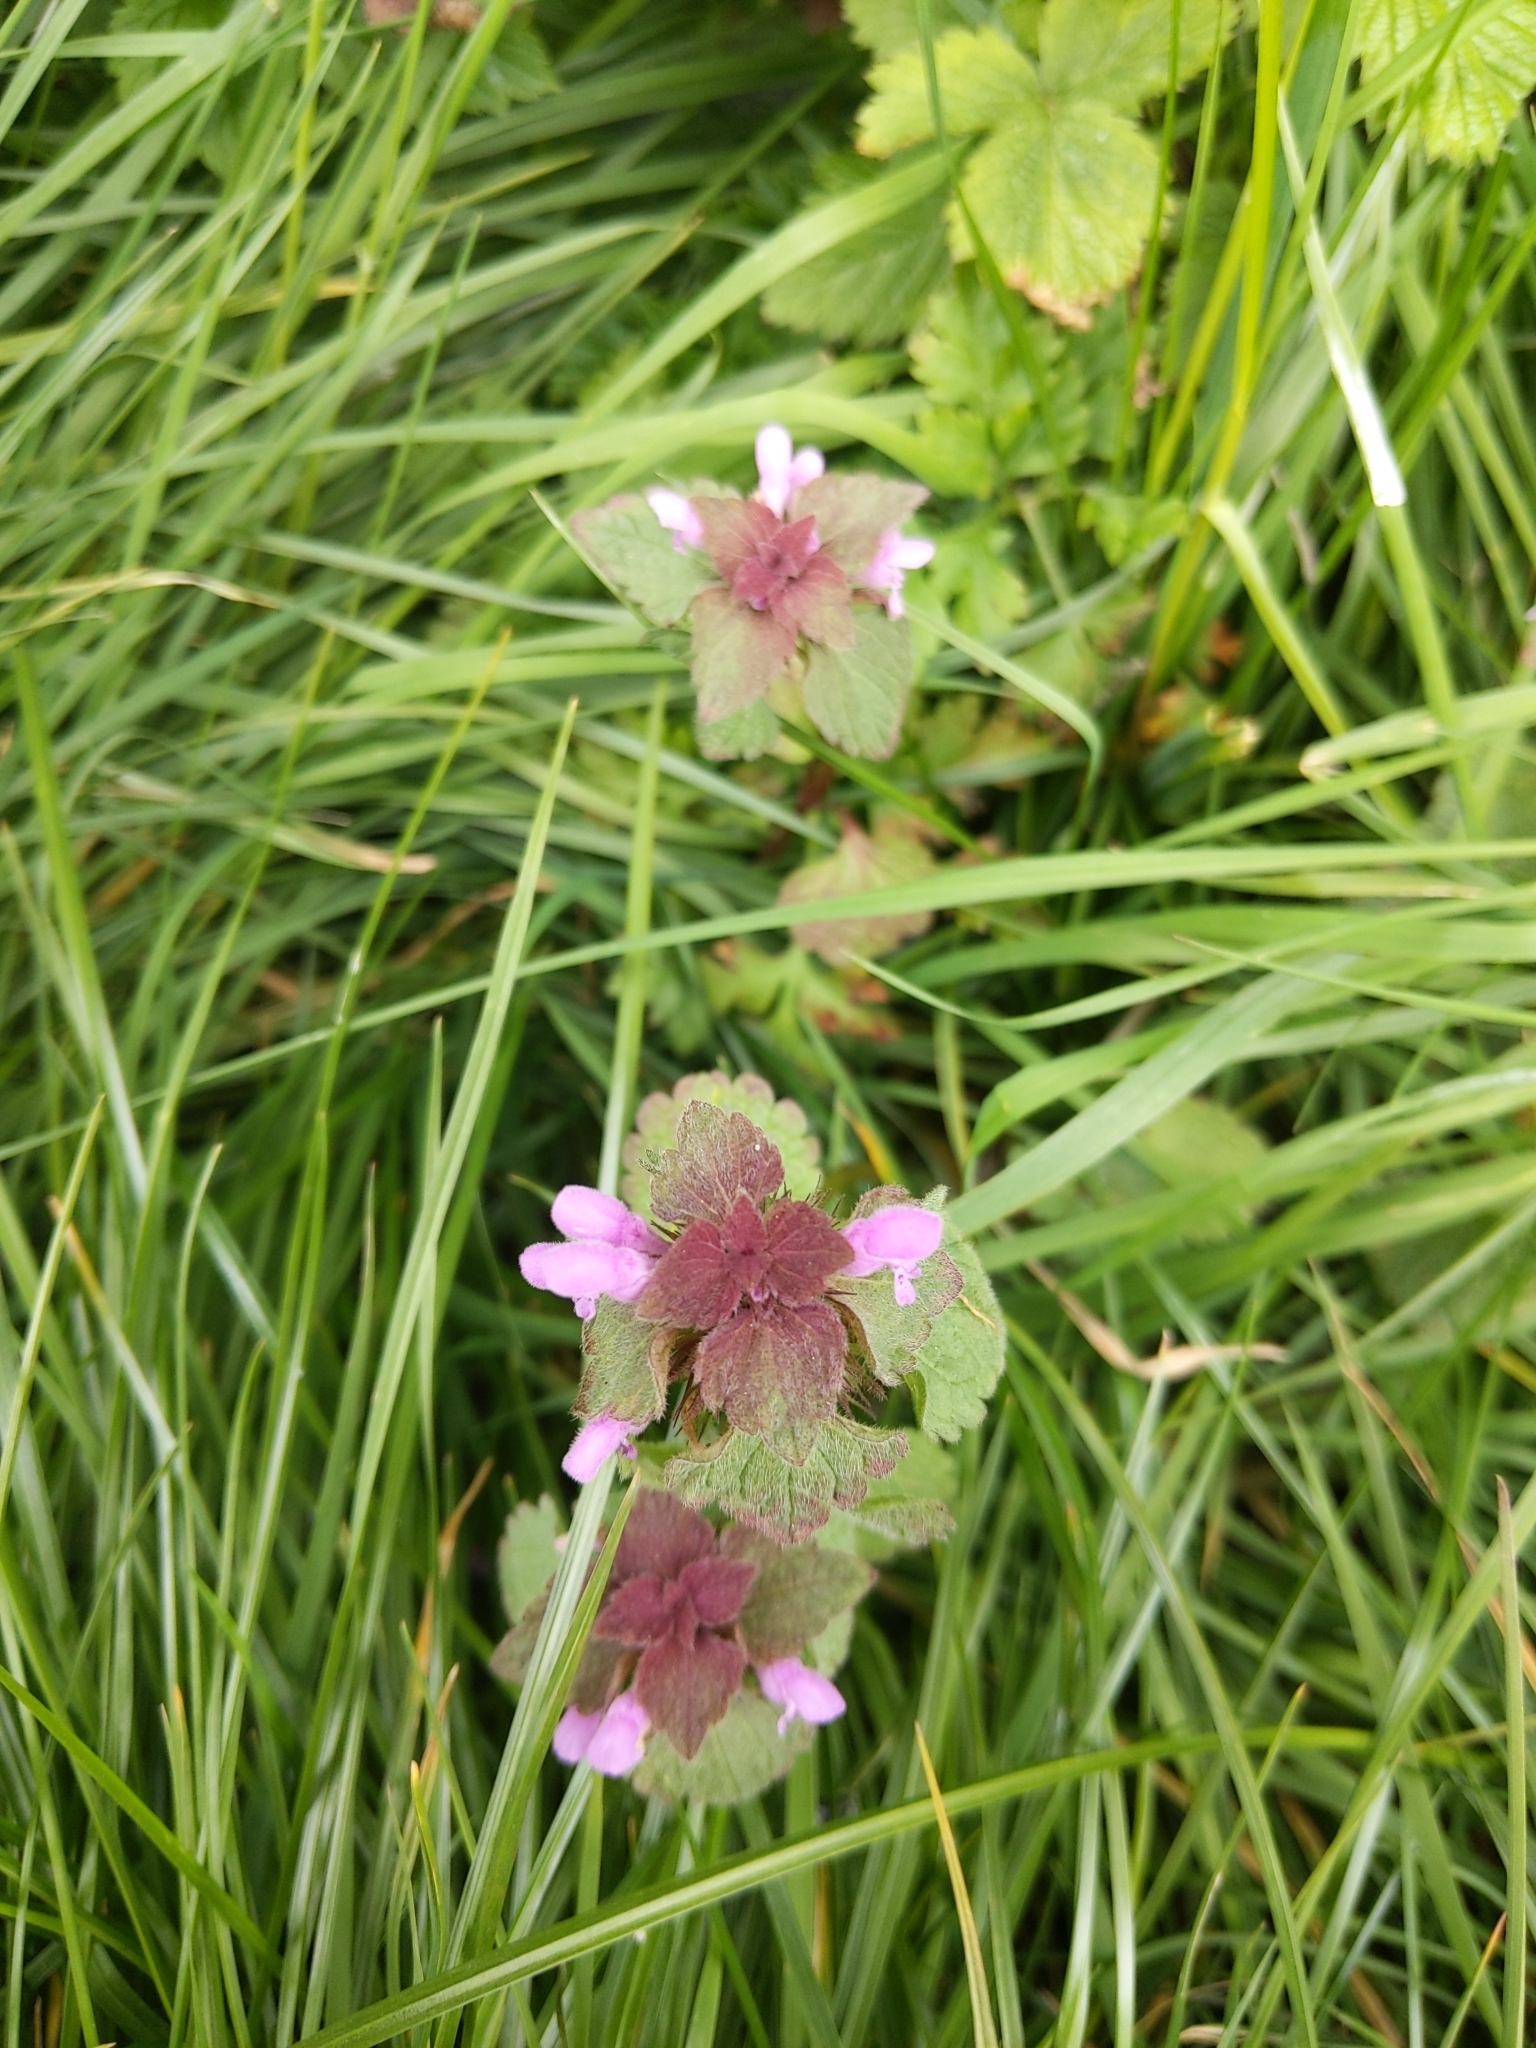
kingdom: Plantae
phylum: Tracheophyta
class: Magnoliopsida
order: Lamiales
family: Lamiaceae
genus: Lamium
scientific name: Lamium purpureum
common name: Red dead-nettle
